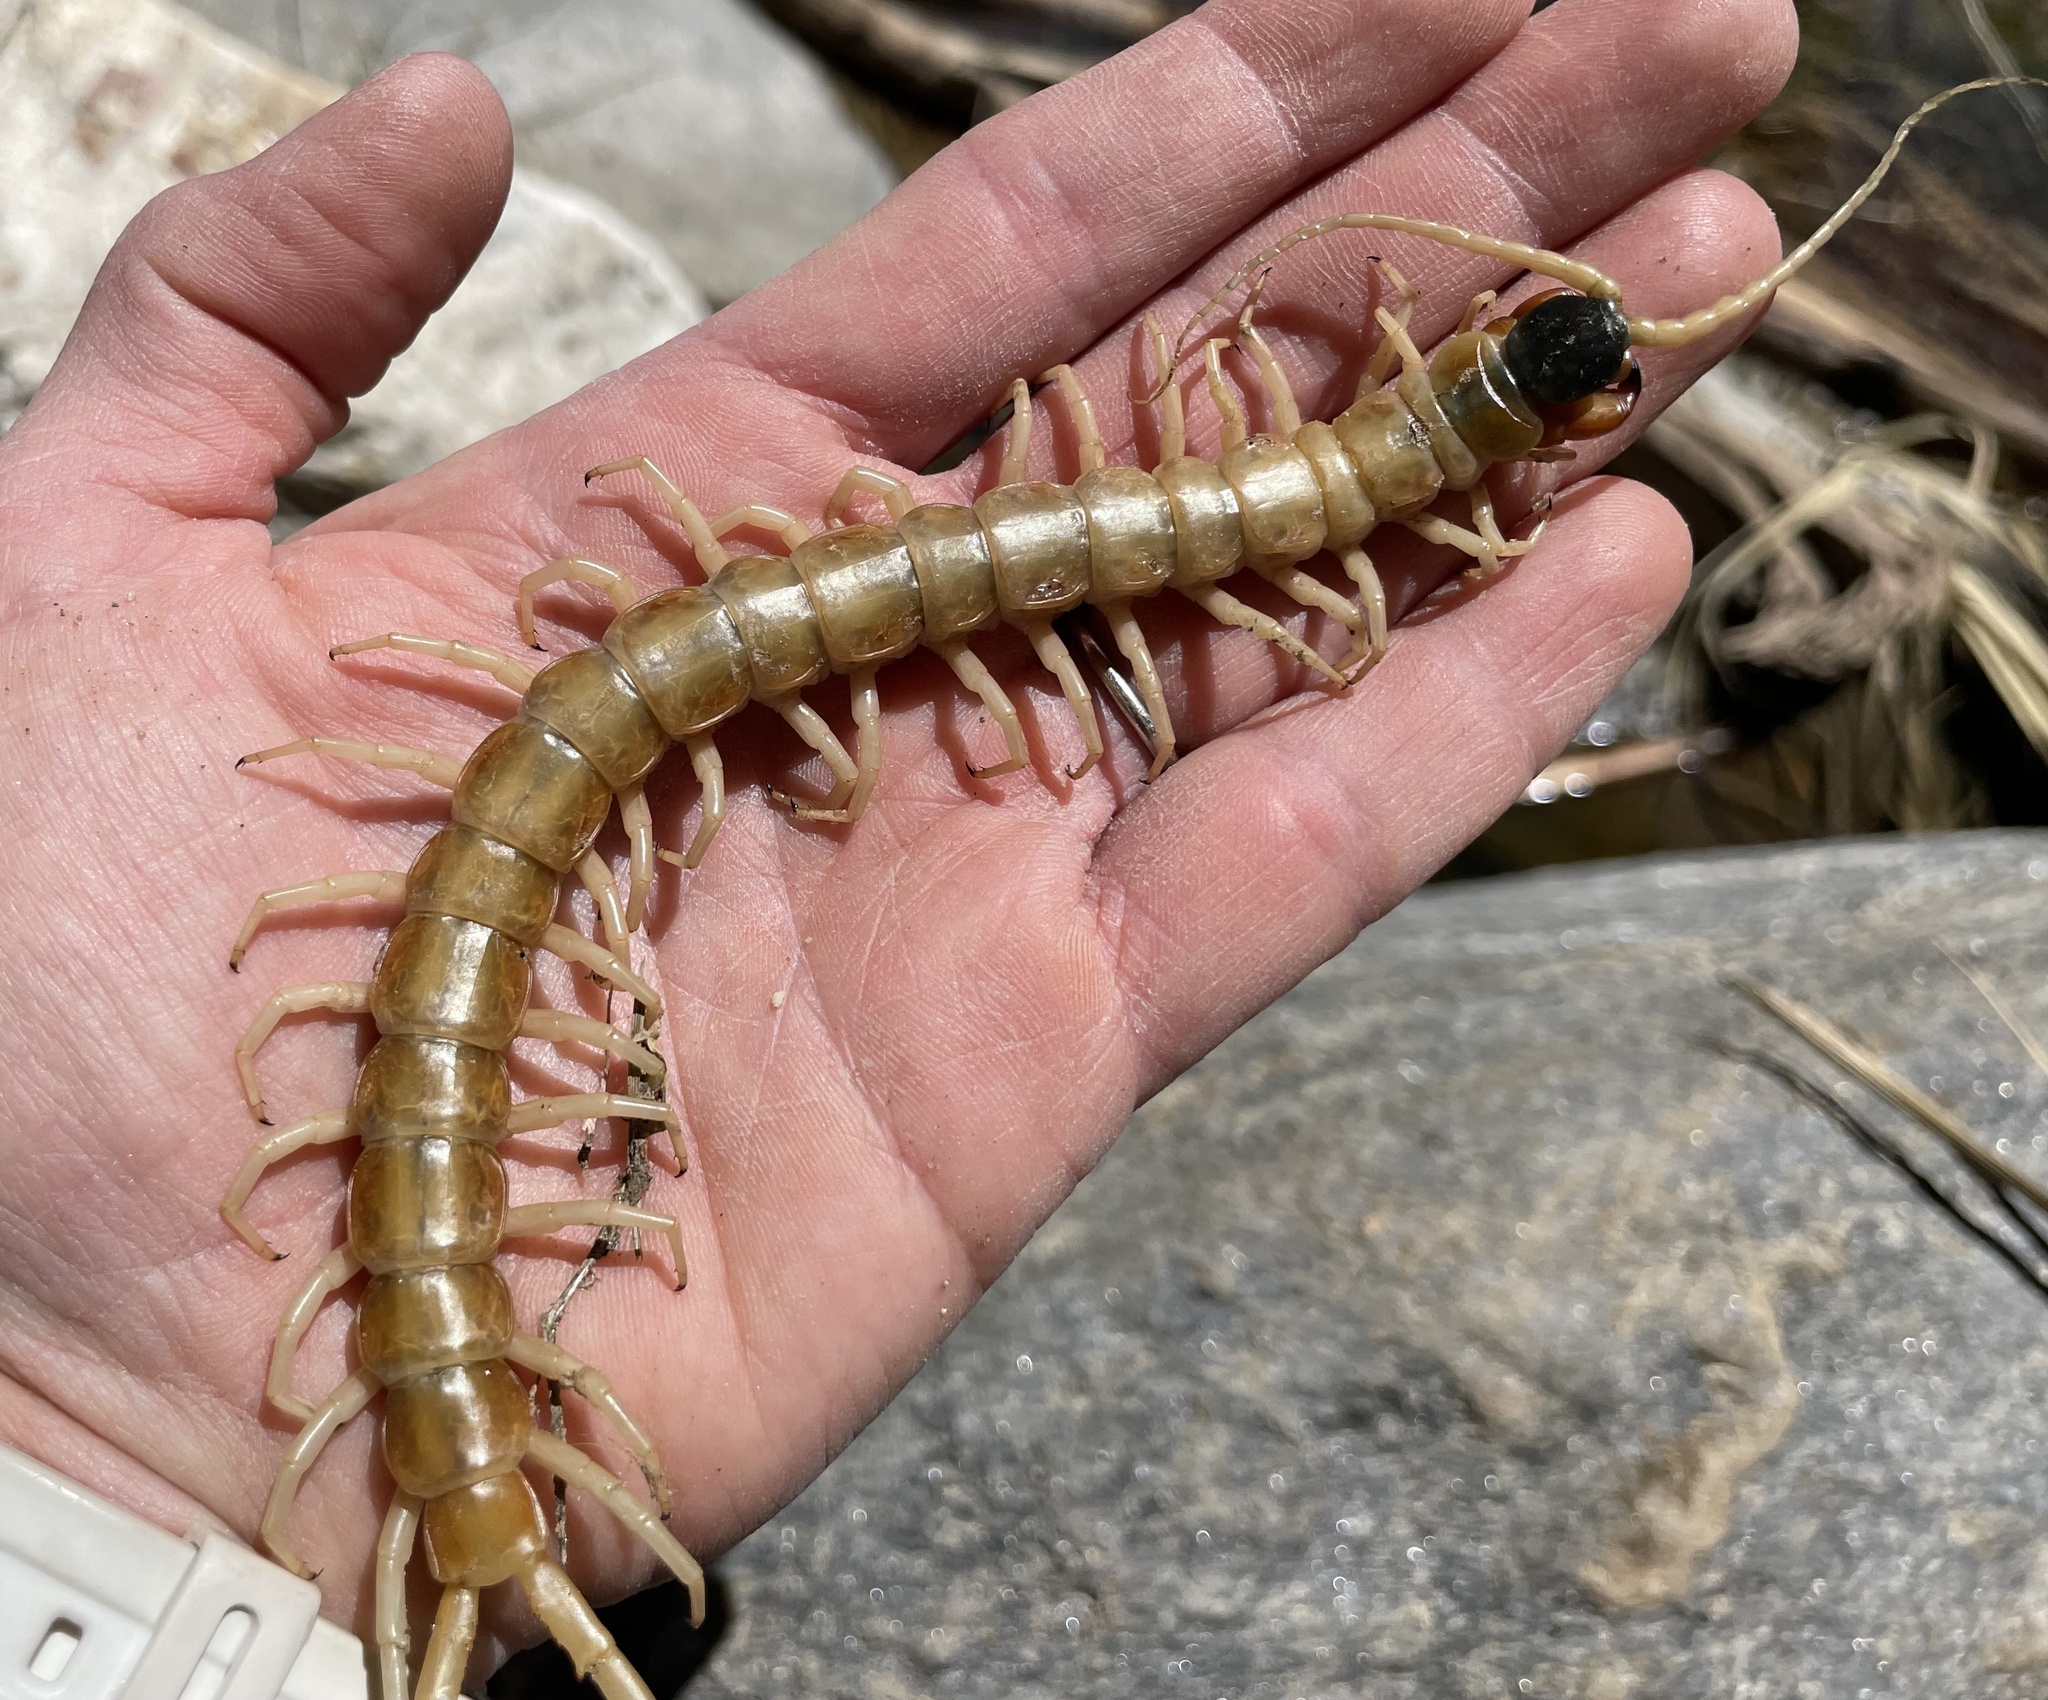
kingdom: Animalia
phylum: Arthropoda
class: Chilopoda
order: Scolopendromorpha
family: Scolopendridae
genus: Scolopendra
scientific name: Scolopendra aztecorum
